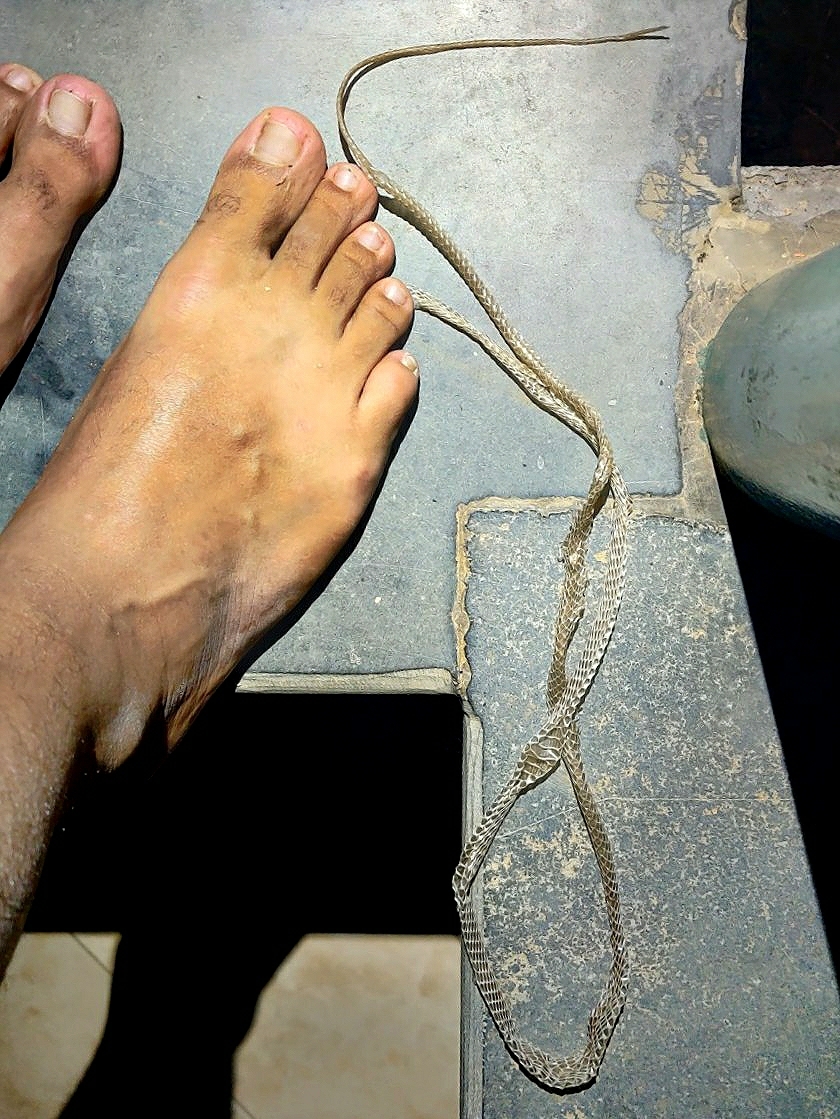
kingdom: Animalia
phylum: Chordata
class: Squamata
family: Colubridae
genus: Dendrelaphis
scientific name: Dendrelaphis tristis
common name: Daudin's bronzeback
